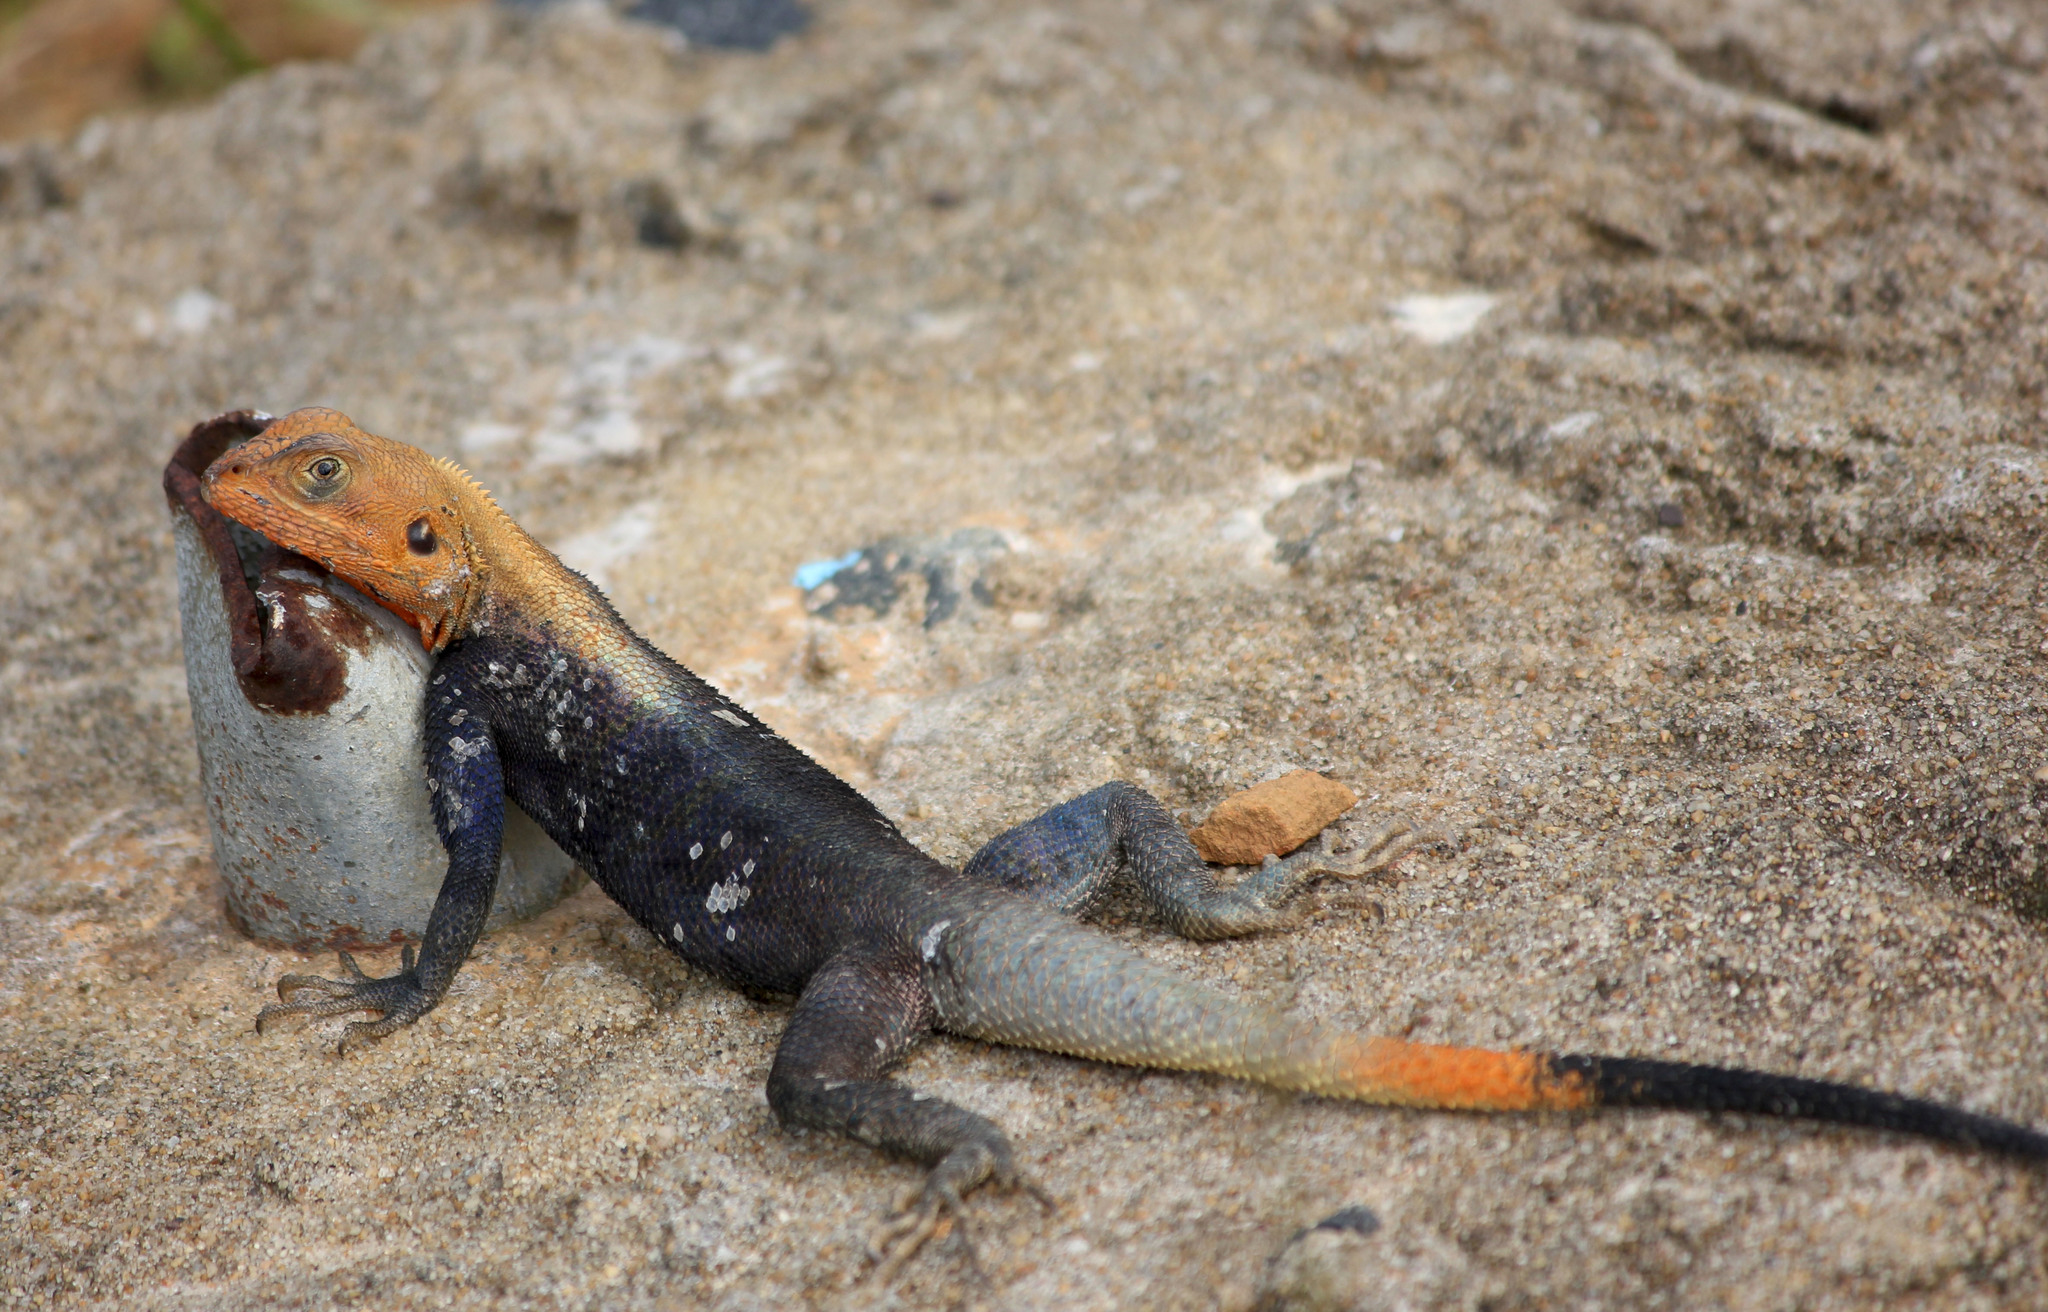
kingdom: Animalia
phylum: Chordata
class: Squamata
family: Agamidae
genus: Agama
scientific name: Agama agama
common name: Common agama
